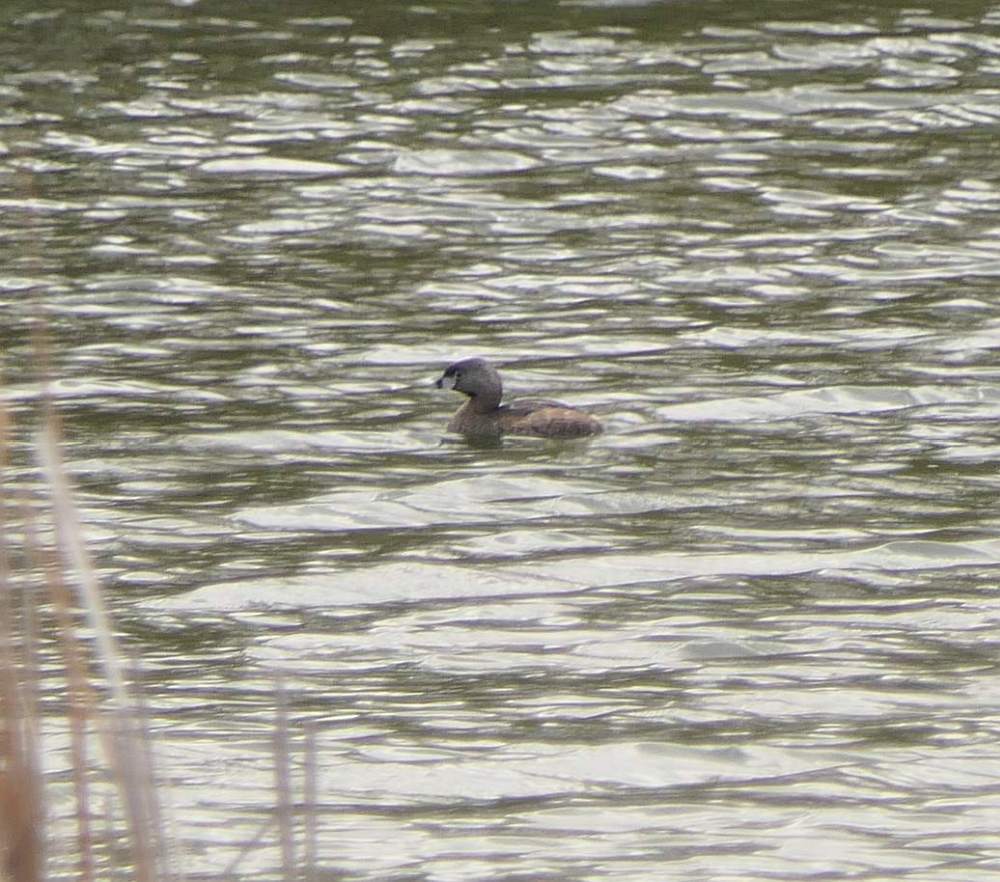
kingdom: Animalia
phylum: Chordata
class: Aves
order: Podicipediformes
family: Podicipedidae
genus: Podilymbus
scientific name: Podilymbus podiceps
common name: Pied-billed grebe
